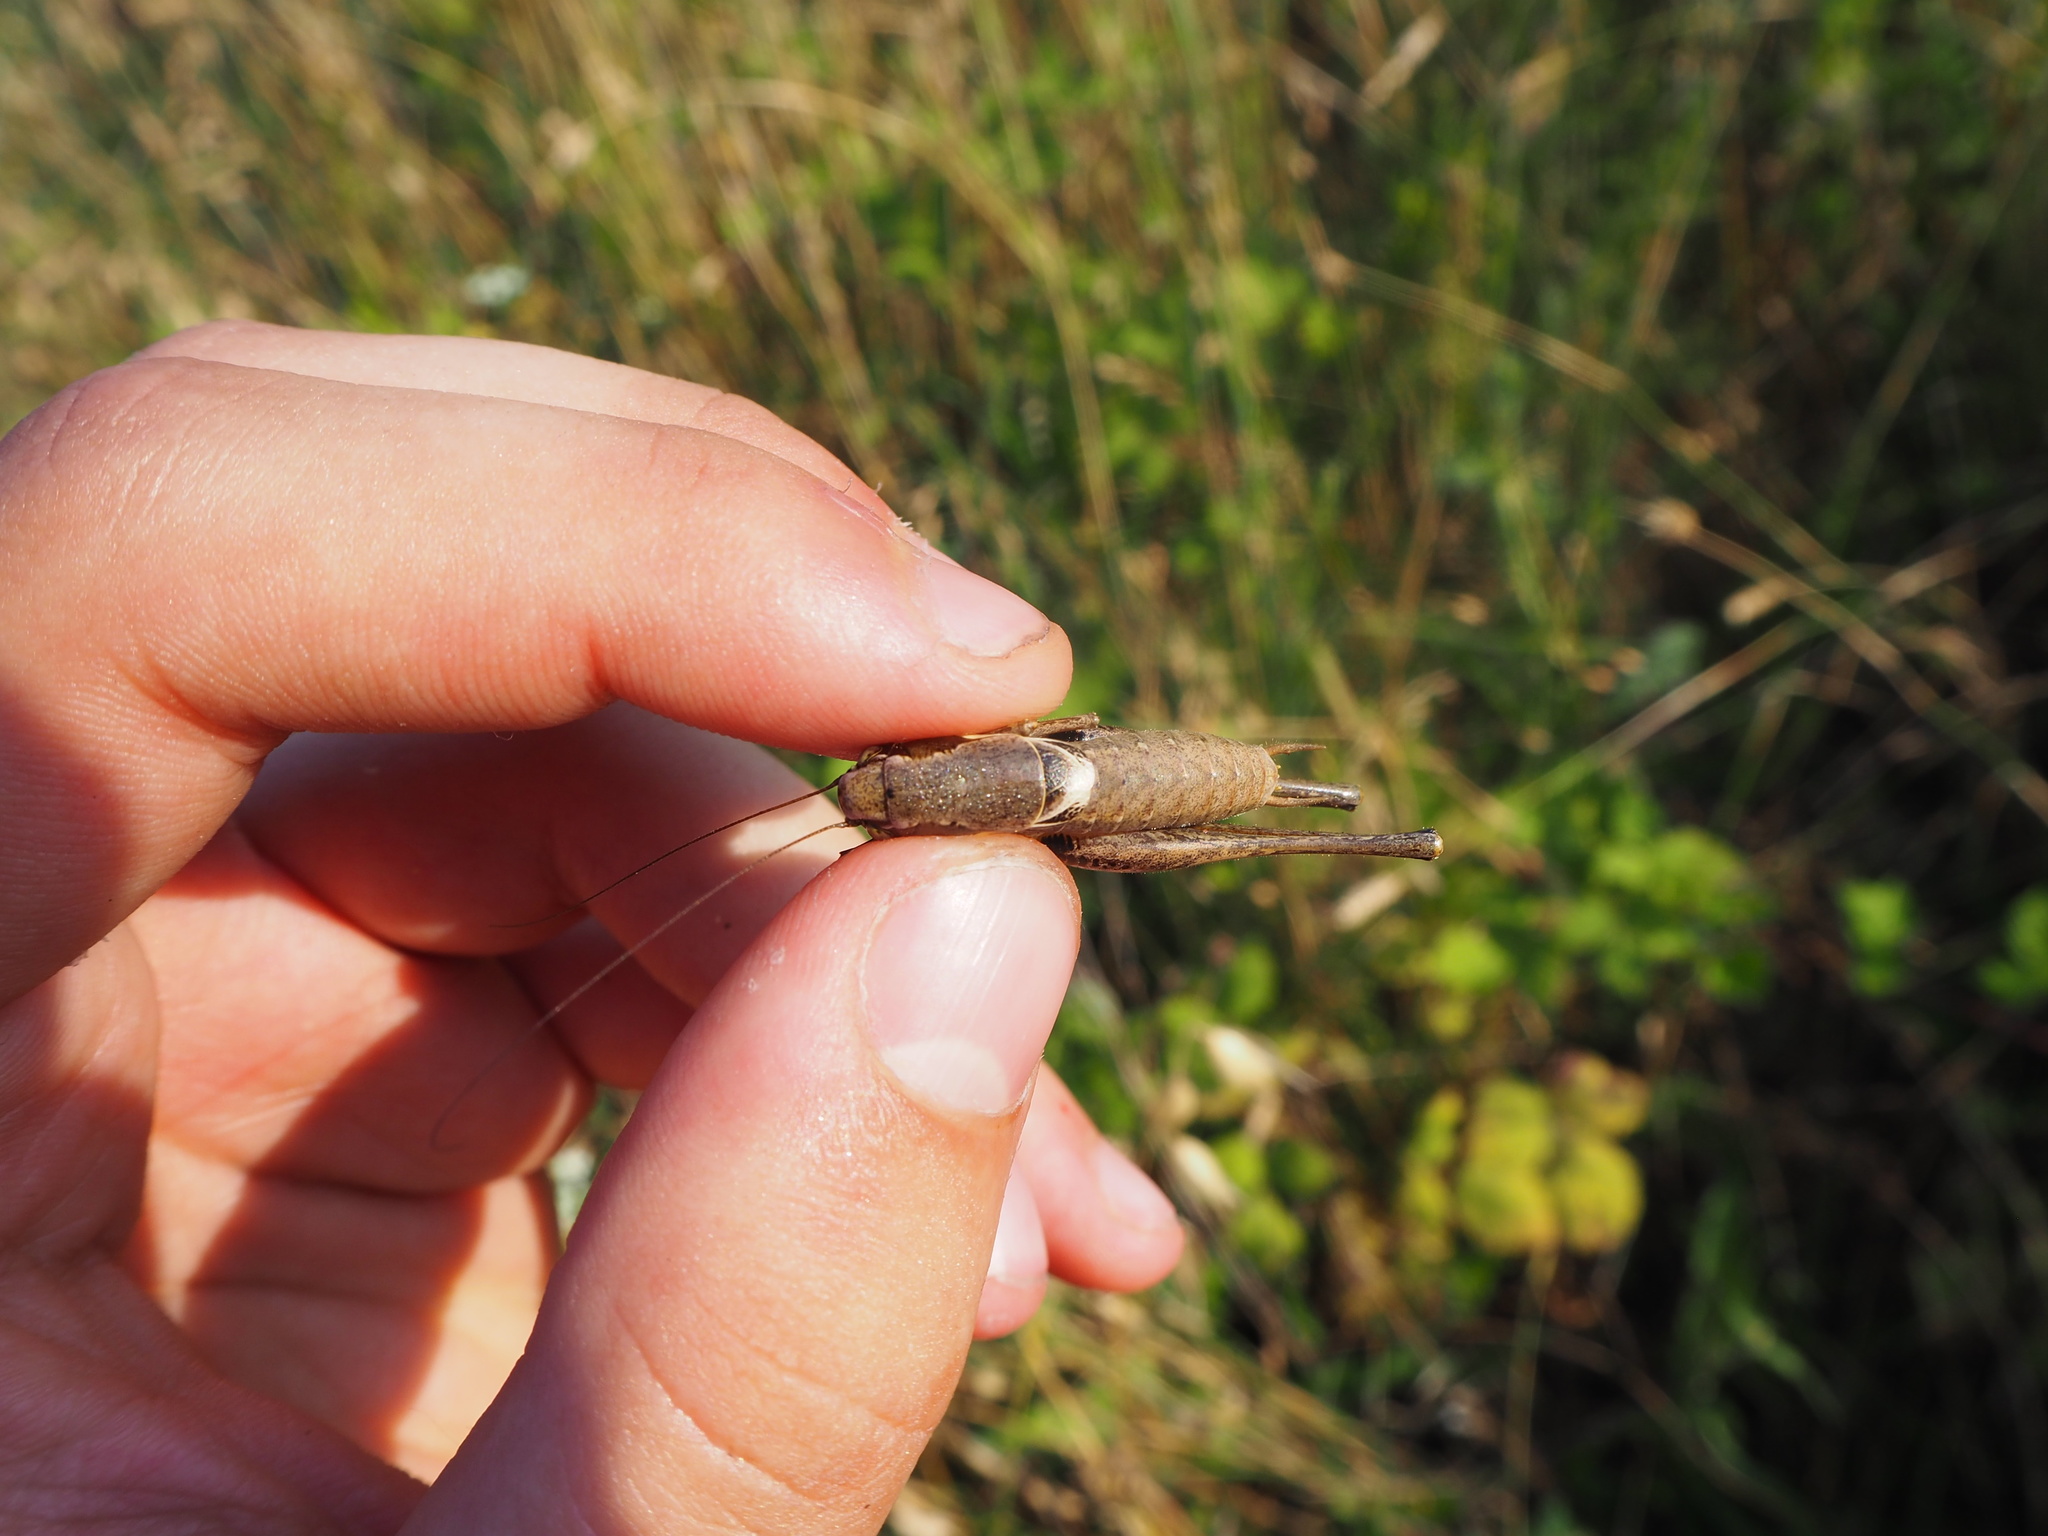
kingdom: Animalia
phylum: Arthropoda
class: Insecta
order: Orthoptera
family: Tettigoniidae
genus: Pholidoptera
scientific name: Pholidoptera femorata
